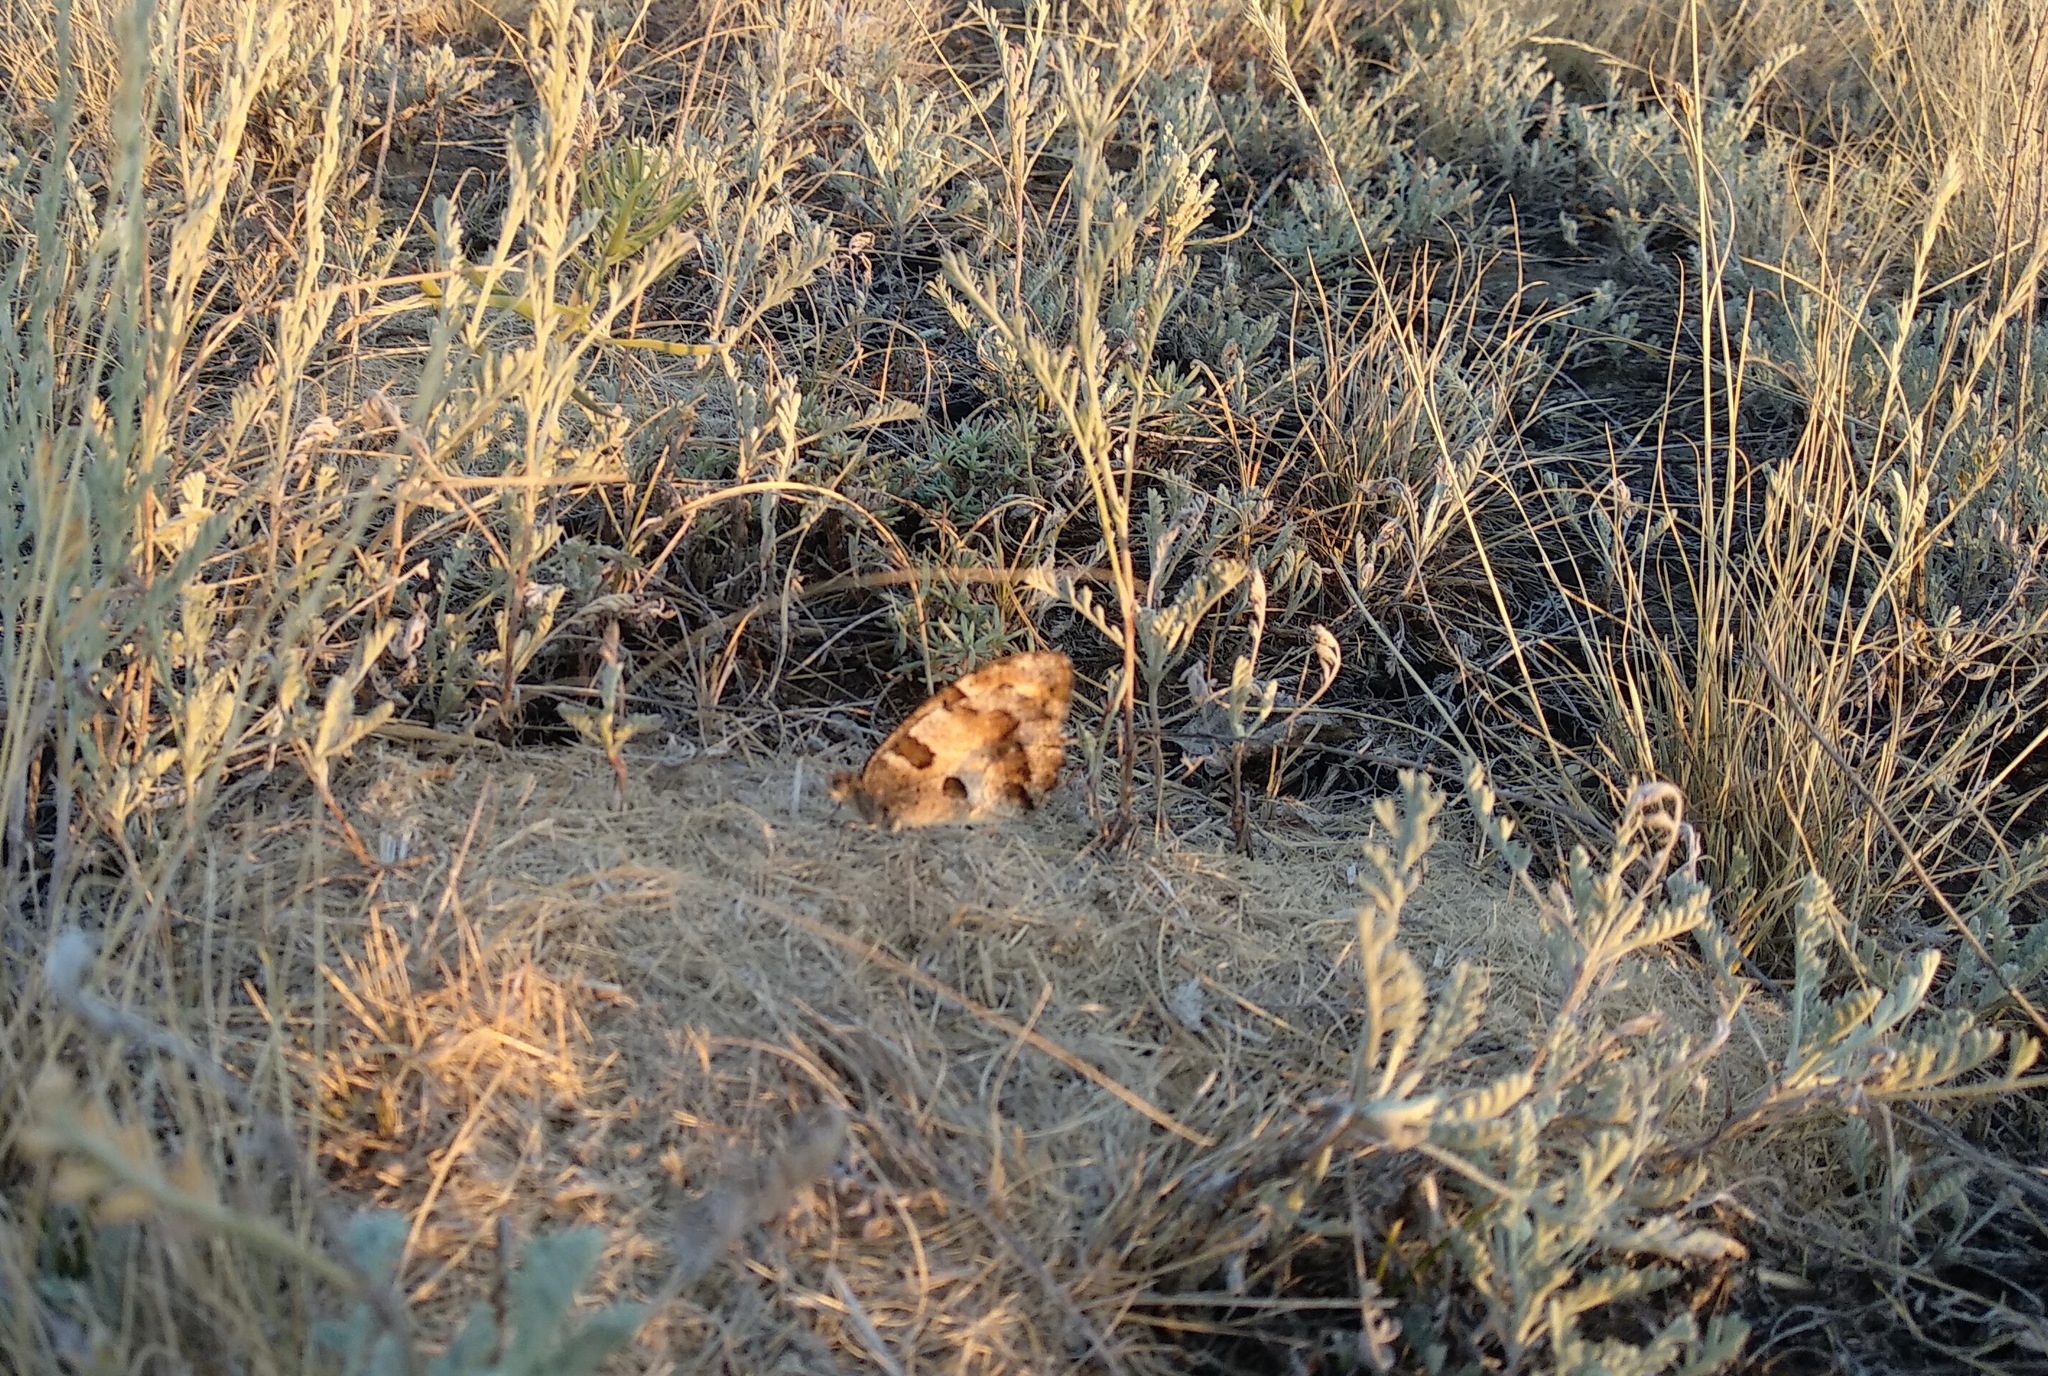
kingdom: Animalia
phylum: Arthropoda
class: Insecta
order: Lepidoptera
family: Nymphalidae
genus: Satyrus
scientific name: Satyrus briseis
